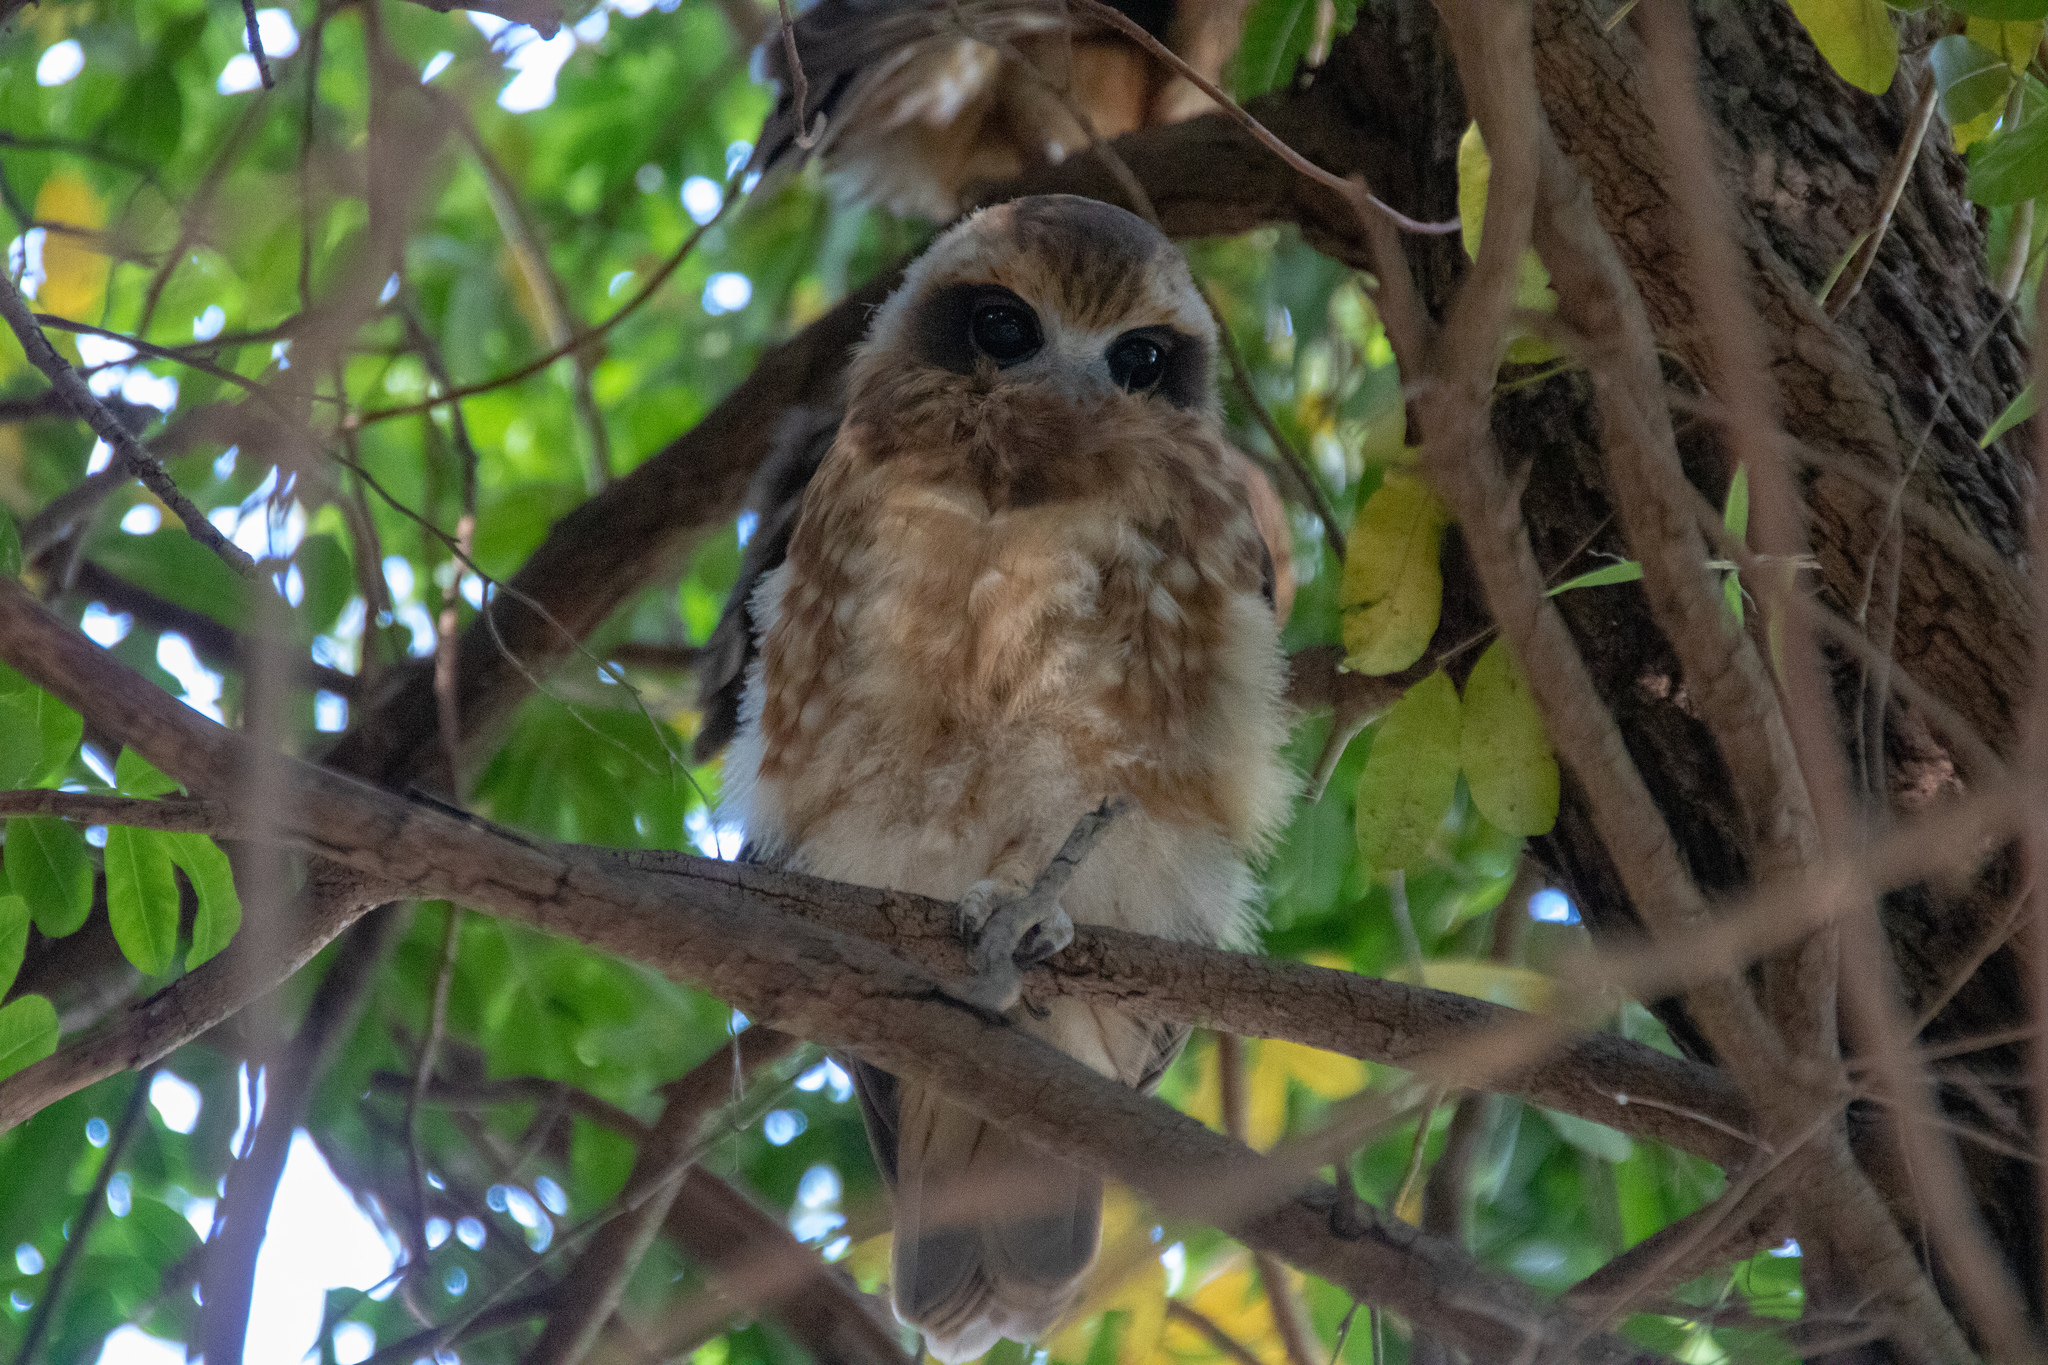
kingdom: Animalia
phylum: Chordata
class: Aves
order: Strigiformes
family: Strigidae
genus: Ninox
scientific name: Ninox boobook
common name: Southern boobook
